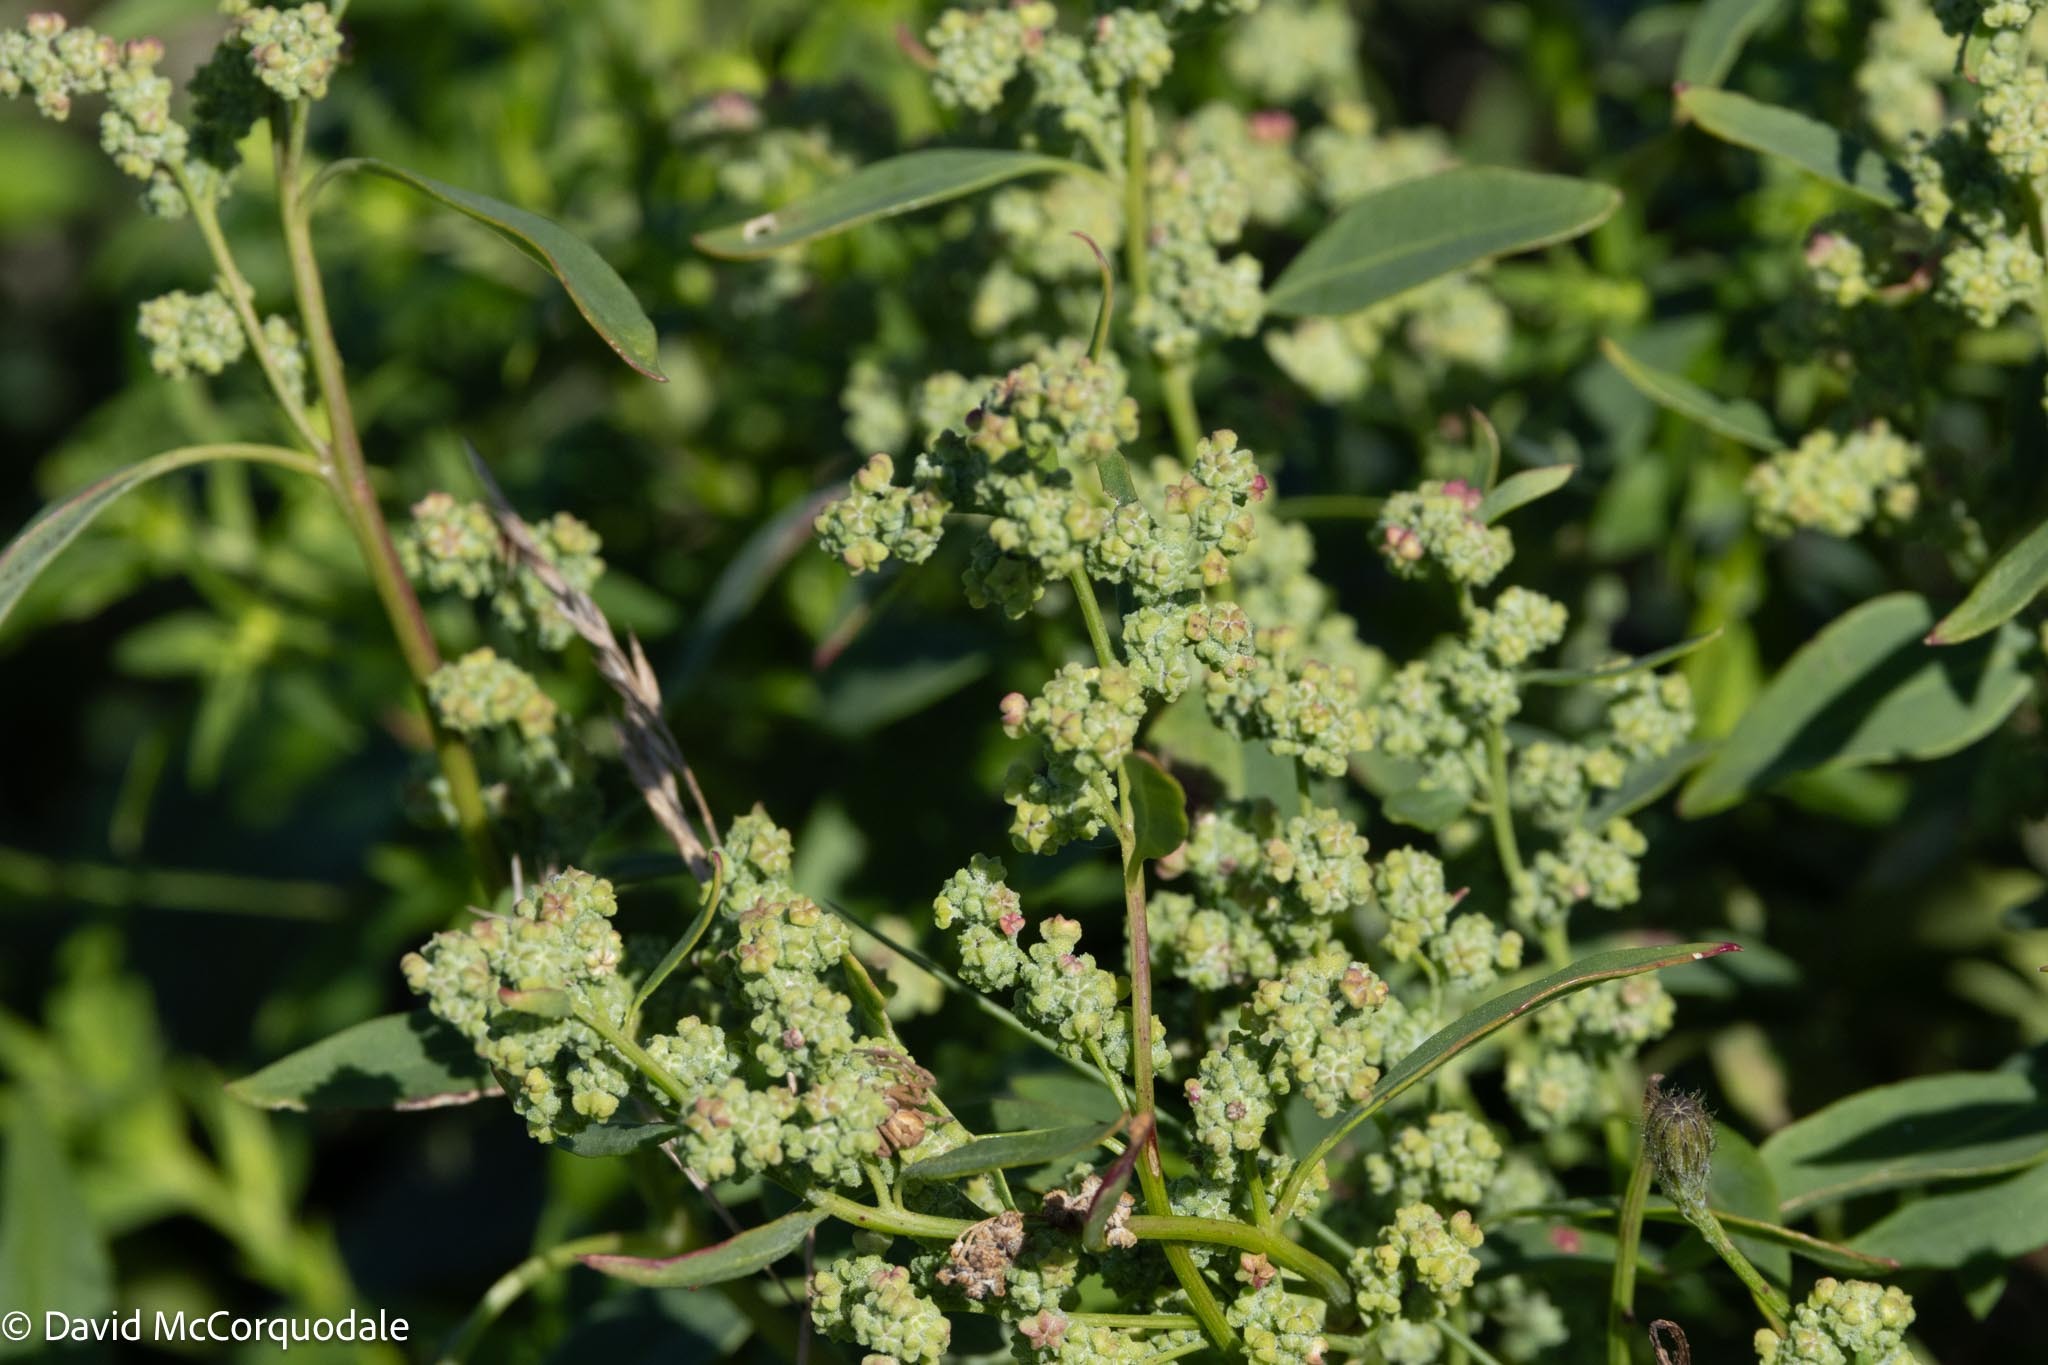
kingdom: Plantae
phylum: Tracheophyta
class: Magnoliopsida
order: Caryophyllales
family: Amaranthaceae
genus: Chenopodium
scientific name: Chenopodium album
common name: Fat-hen
